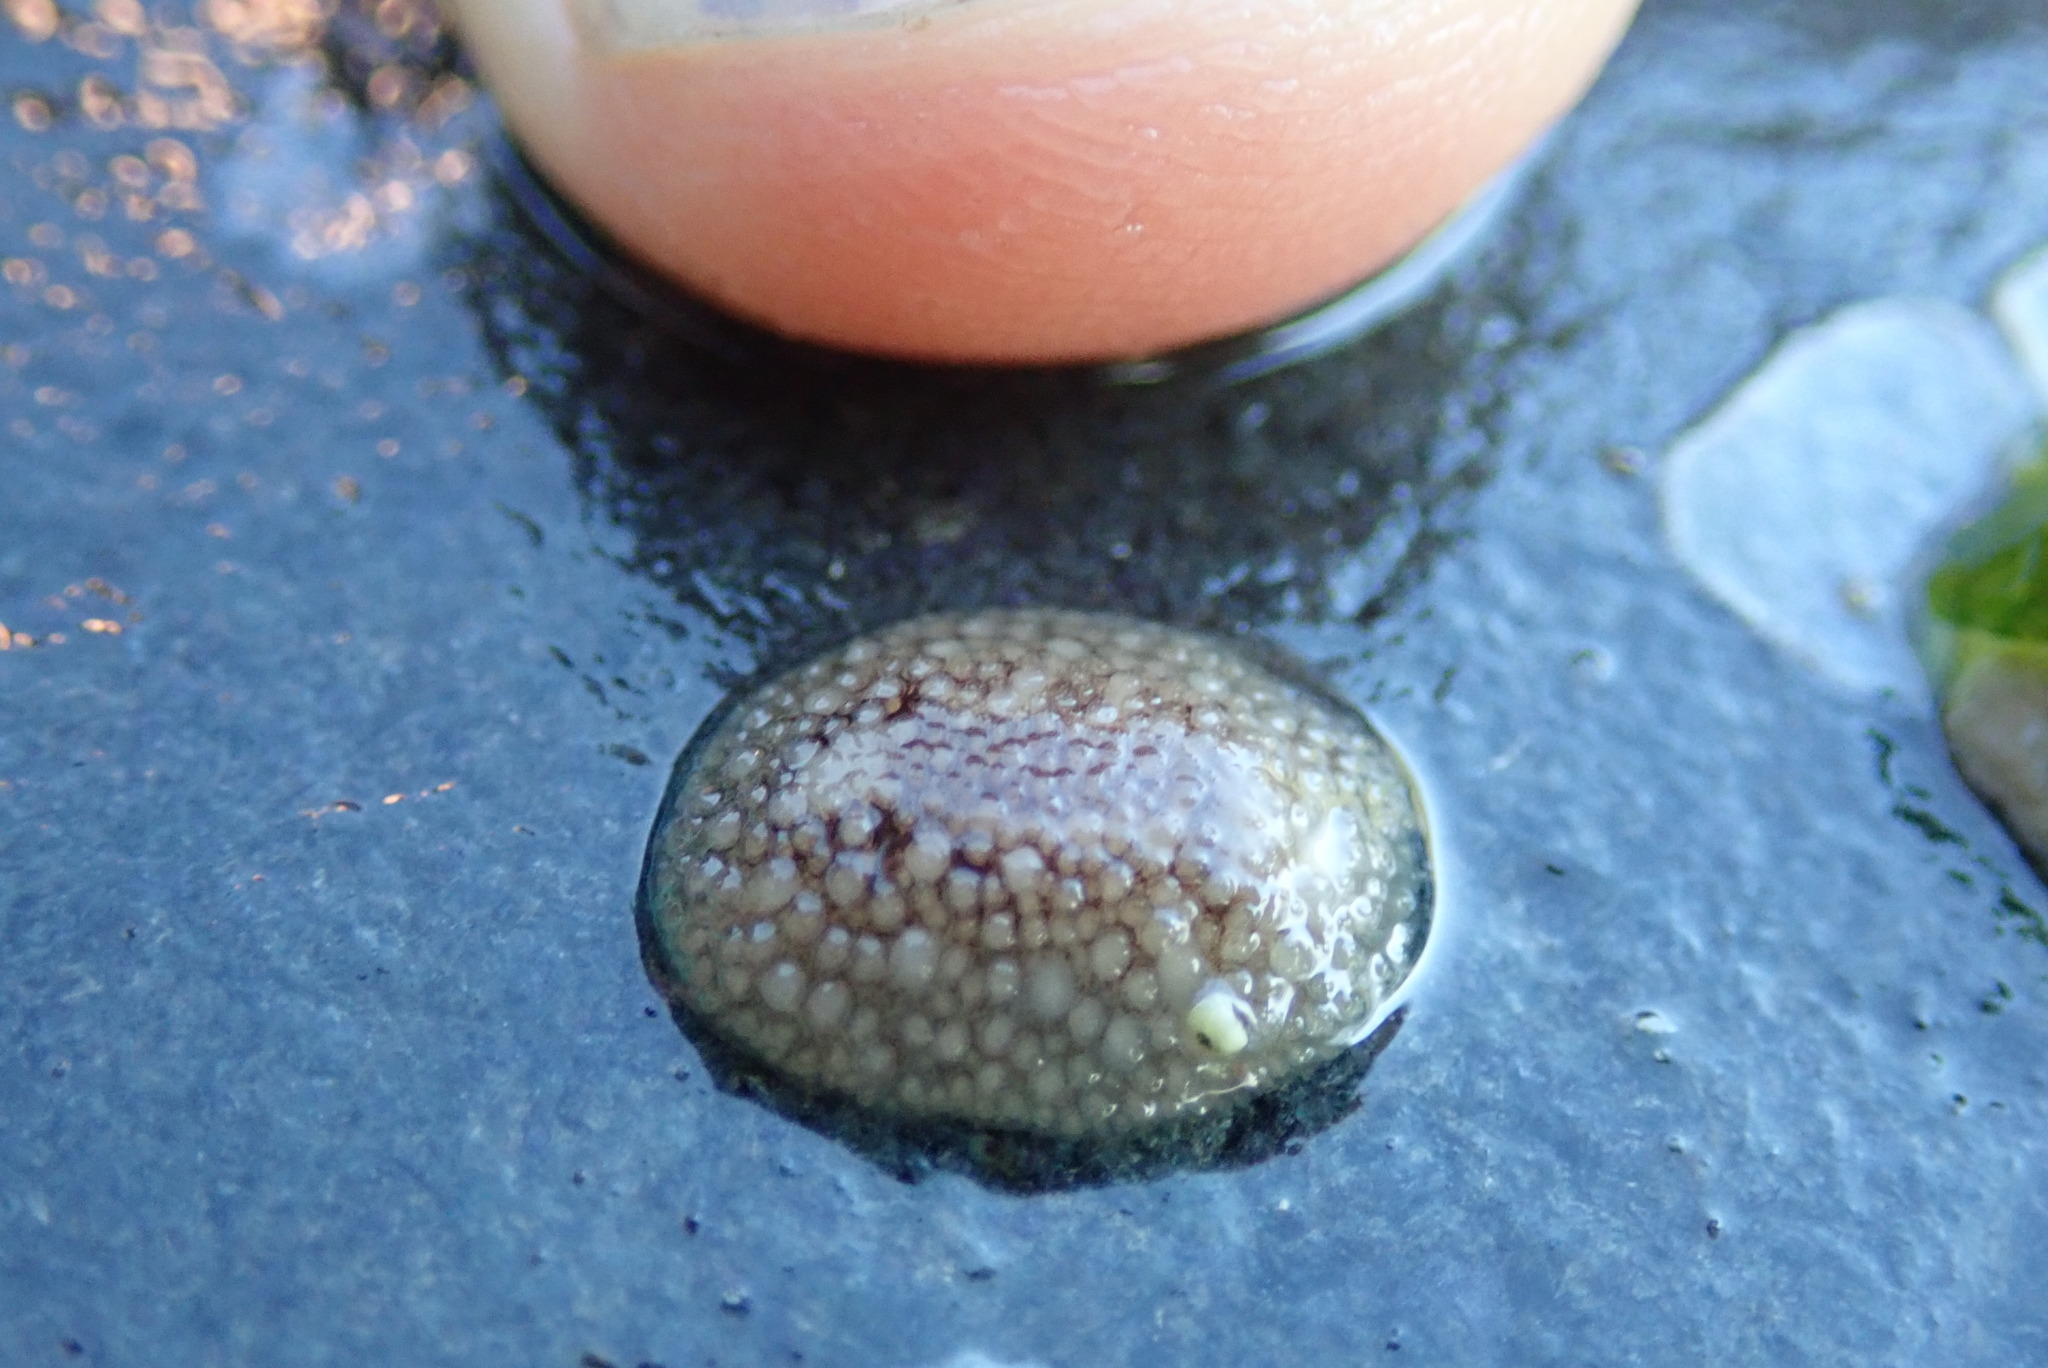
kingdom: Animalia
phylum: Mollusca
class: Gastropoda
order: Nudibranchia
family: Onchidorididae
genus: Onchidoris
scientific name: Onchidoris bilamellata
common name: Barnacle-eating onchidoris
